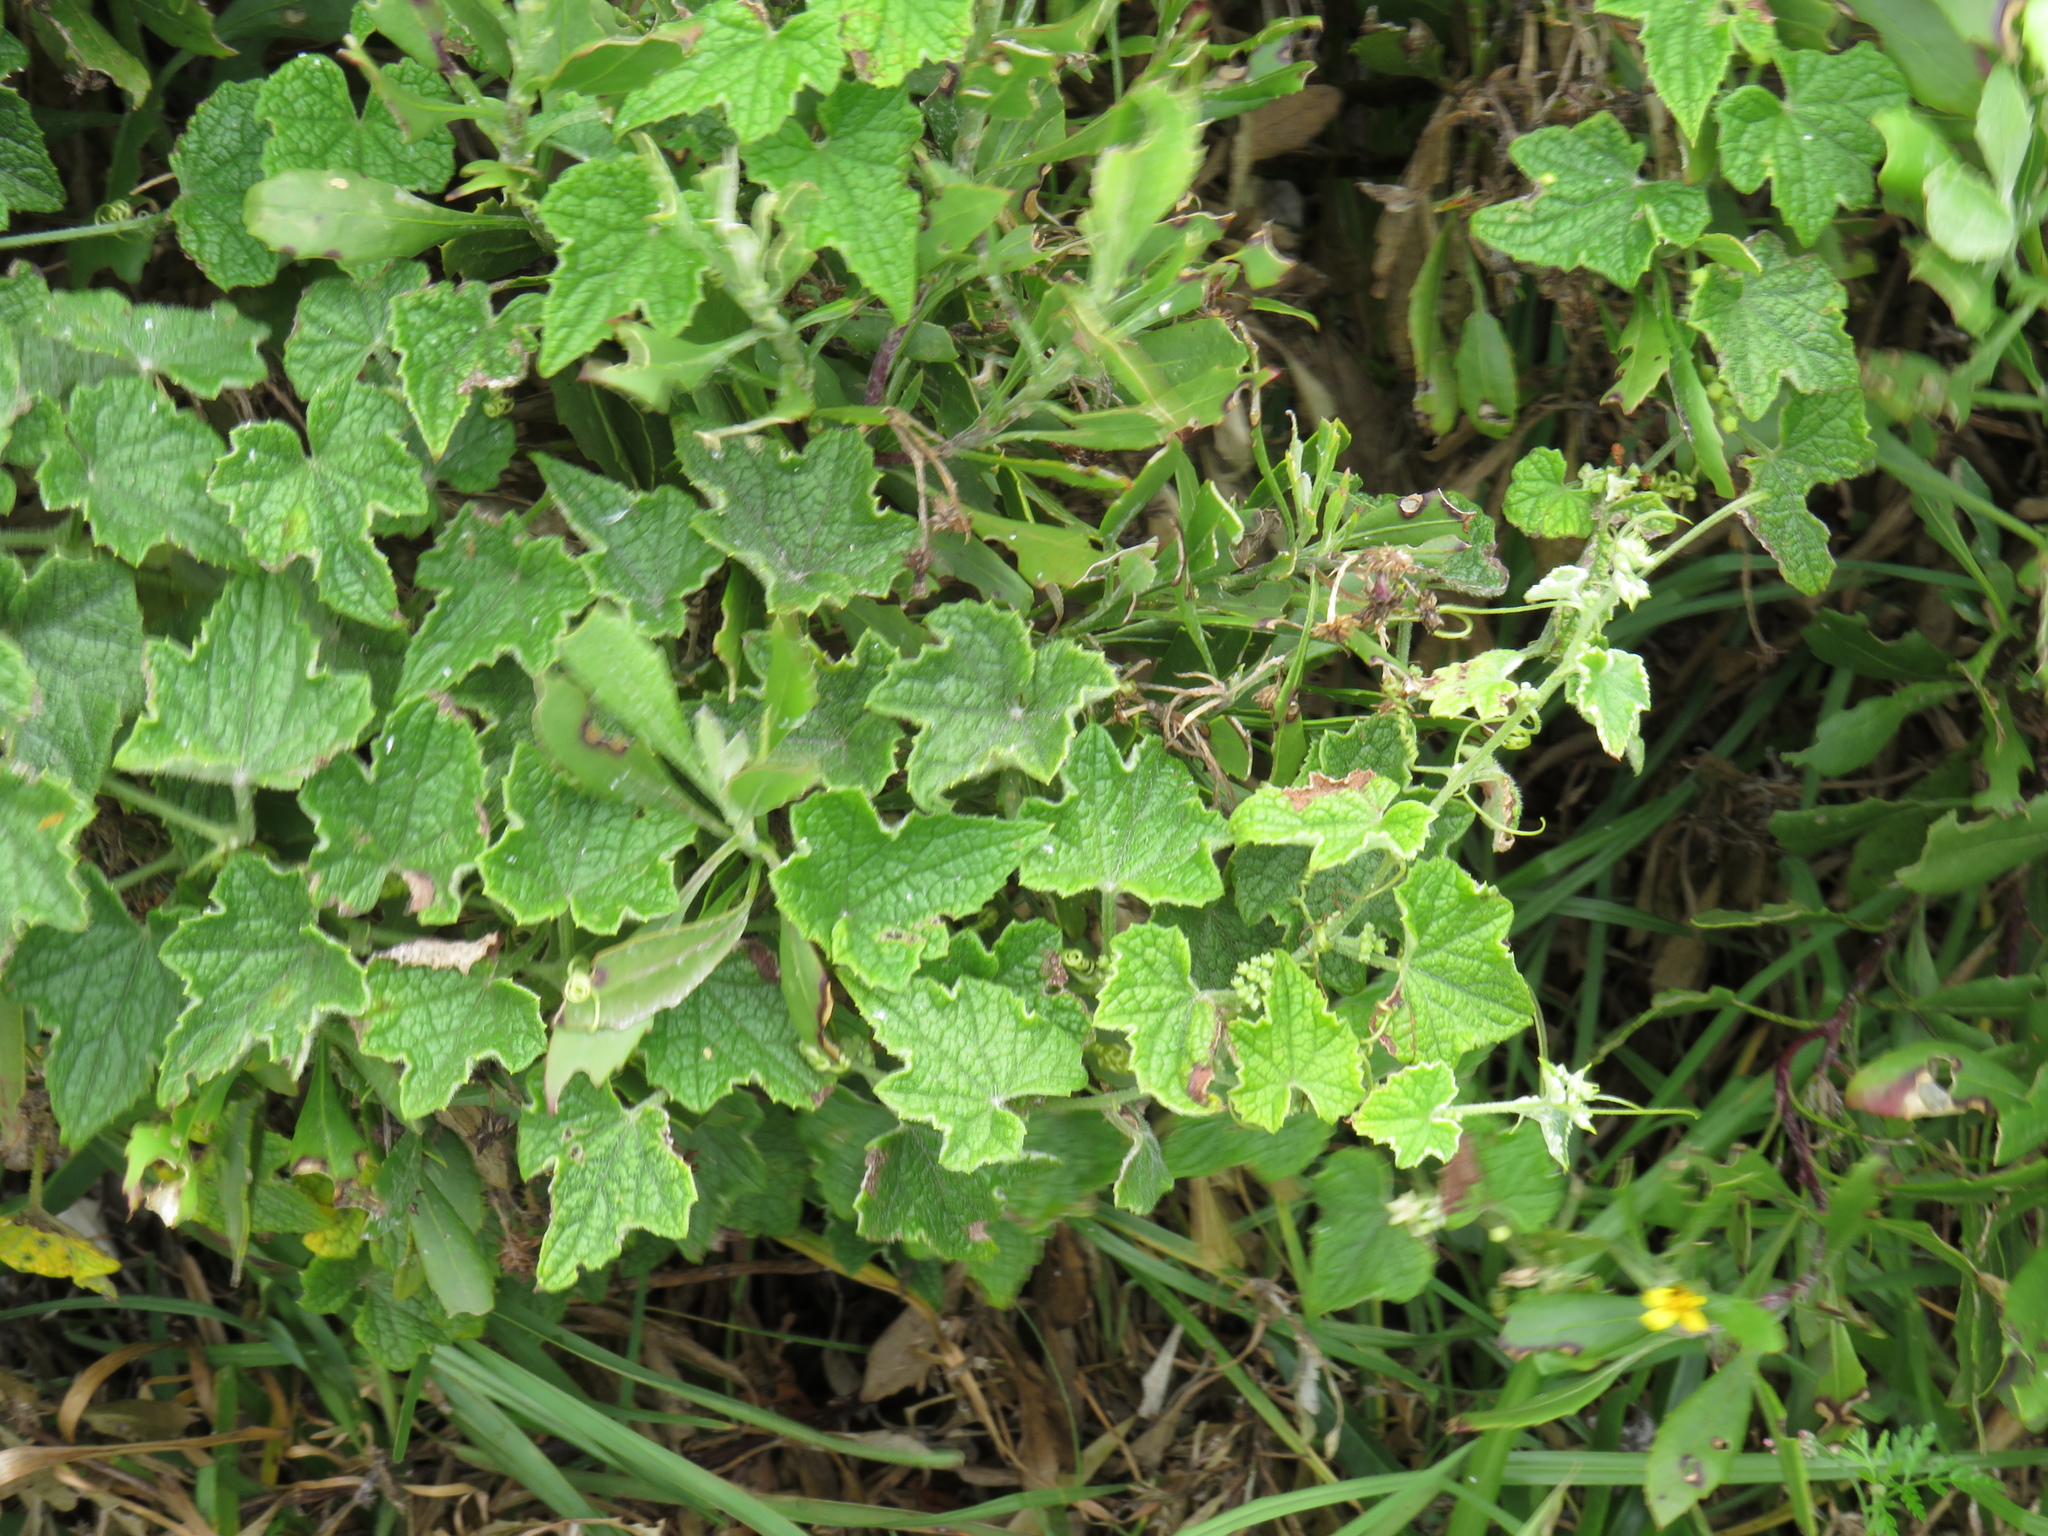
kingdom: Plantae
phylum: Tracheophyta
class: Magnoliopsida
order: Cucurbitales
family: Cucurbitaceae
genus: Zehneria
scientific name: Zehneria scabra
